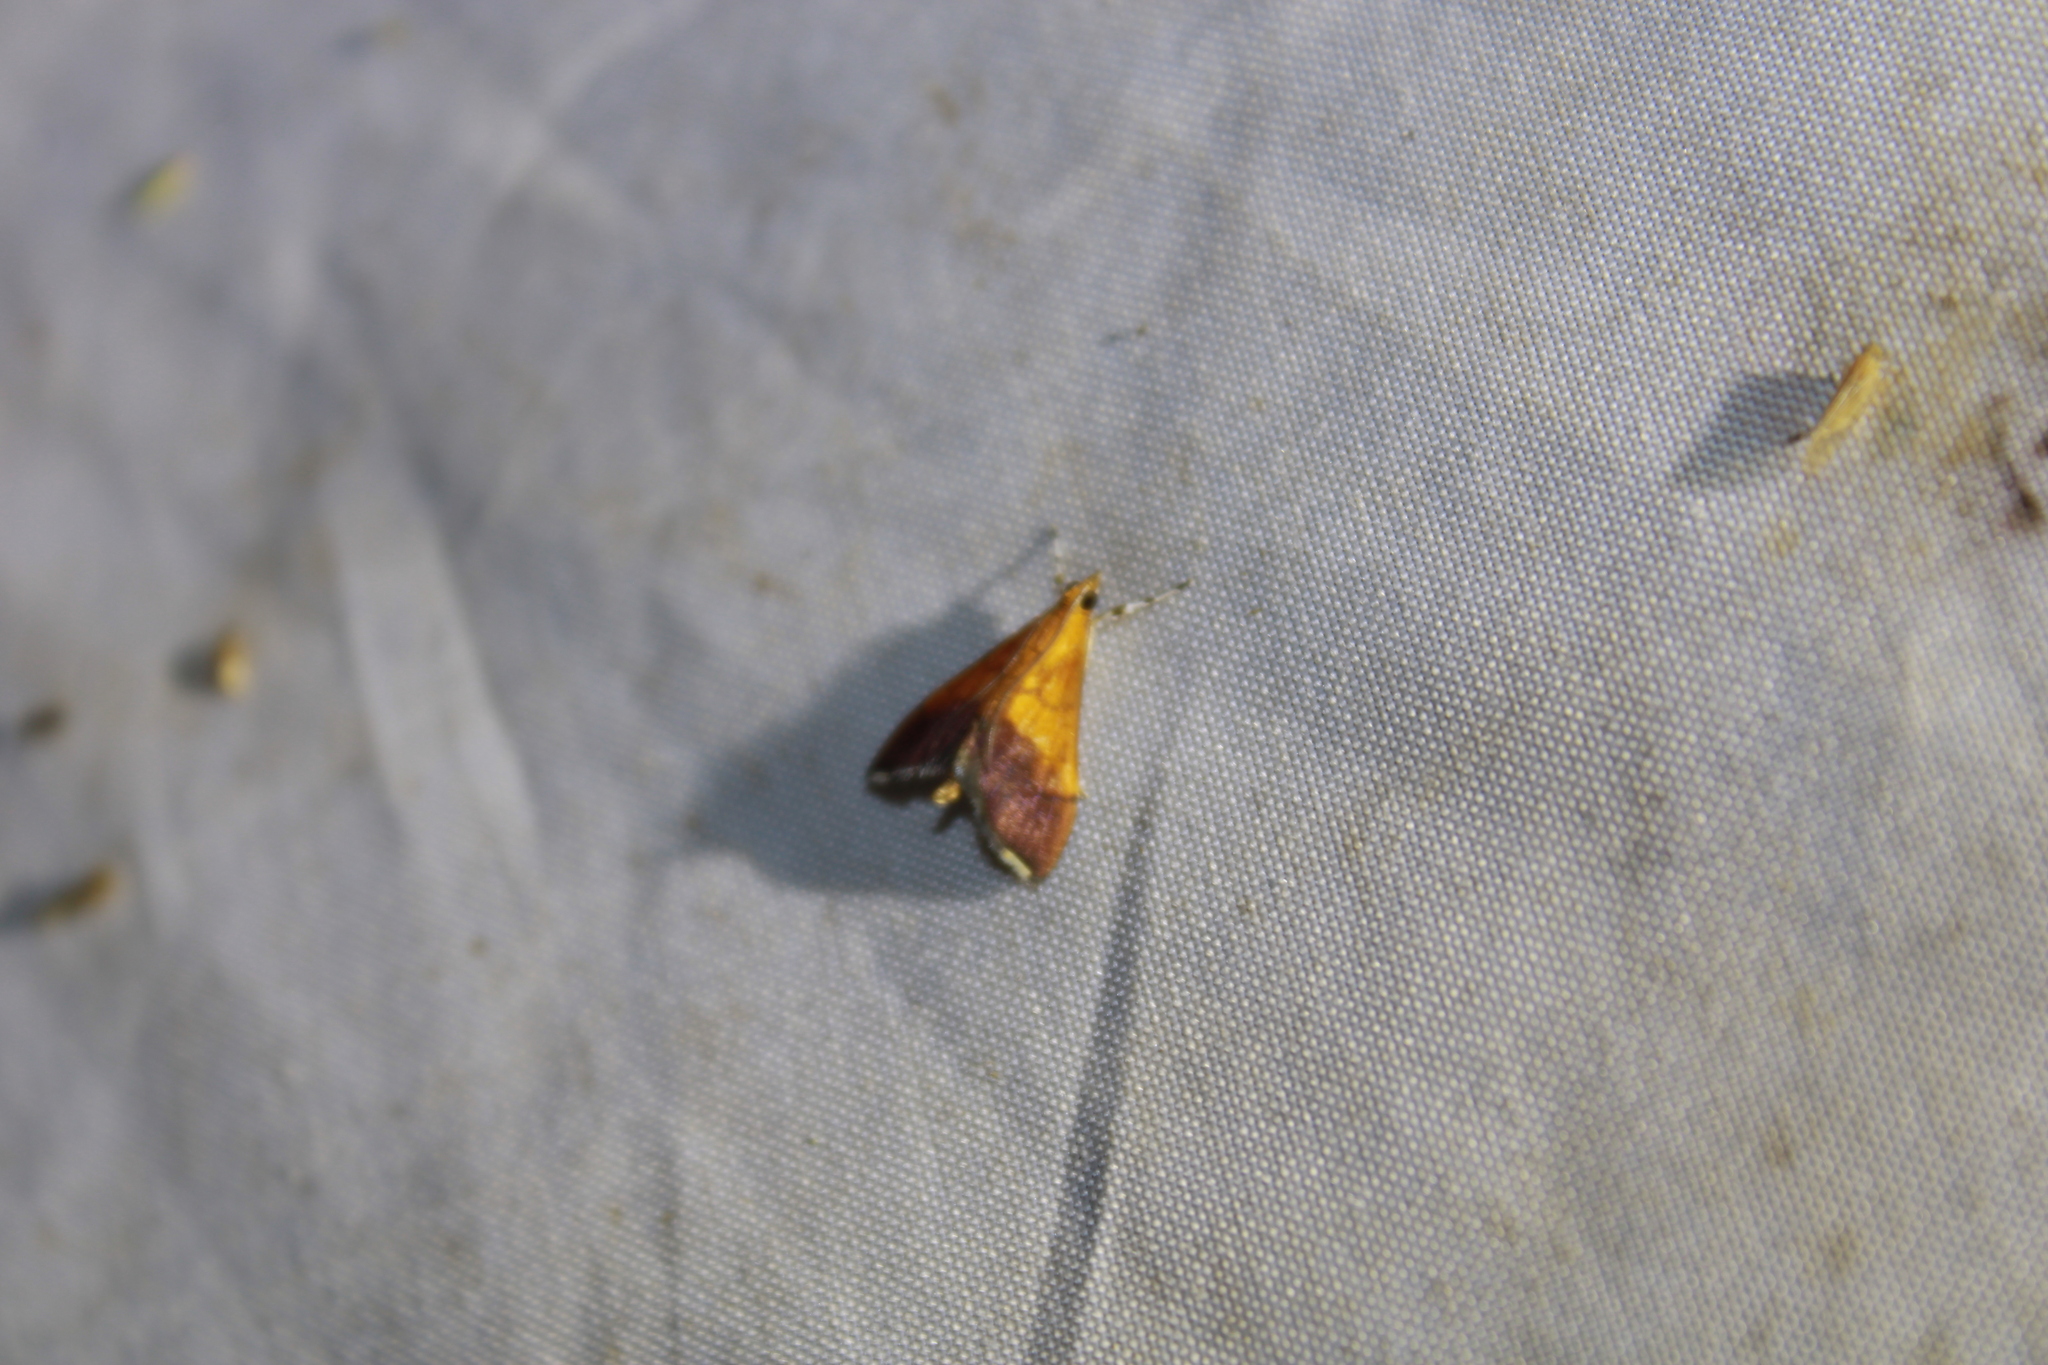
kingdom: Animalia
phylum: Arthropoda
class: Insecta
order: Lepidoptera
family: Crambidae
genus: Pyrausta
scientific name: Pyrausta bicoloralis
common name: Bicolored pyrausta moth
